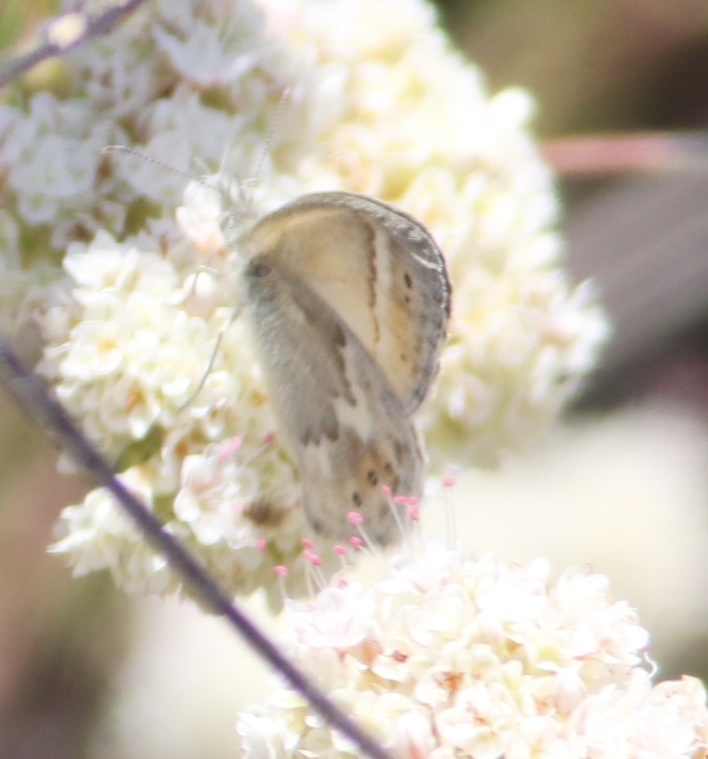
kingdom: Animalia
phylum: Arthropoda
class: Insecta
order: Lepidoptera
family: Nymphalidae
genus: Coenonympha
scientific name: Coenonympha california
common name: Common ringlet
